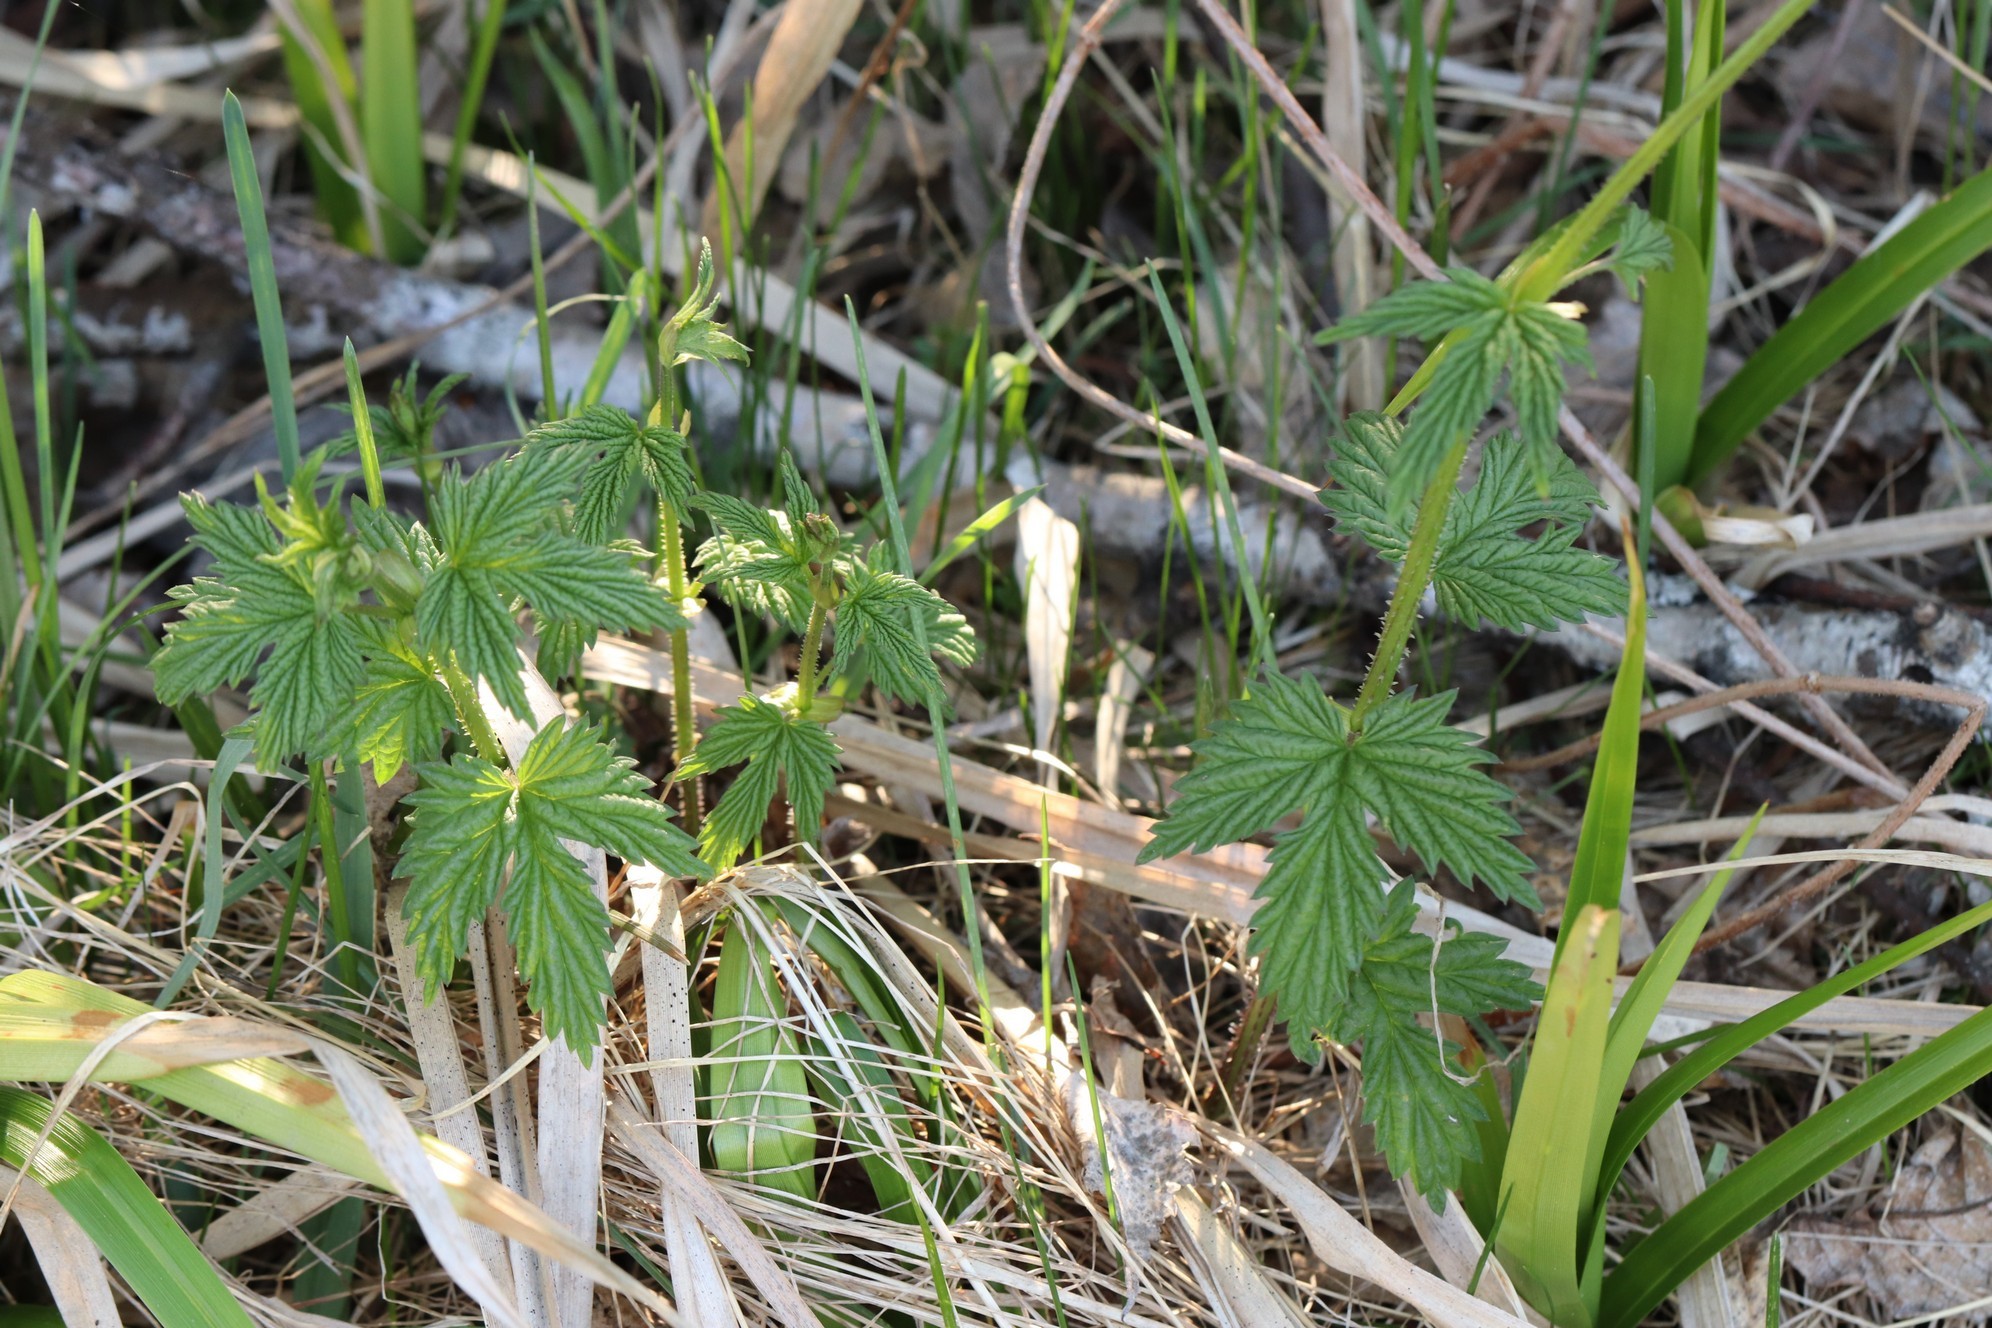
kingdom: Plantae
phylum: Tracheophyta
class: Magnoliopsida
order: Rosales
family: Cannabaceae
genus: Humulus
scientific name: Humulus lupulus
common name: Hop
